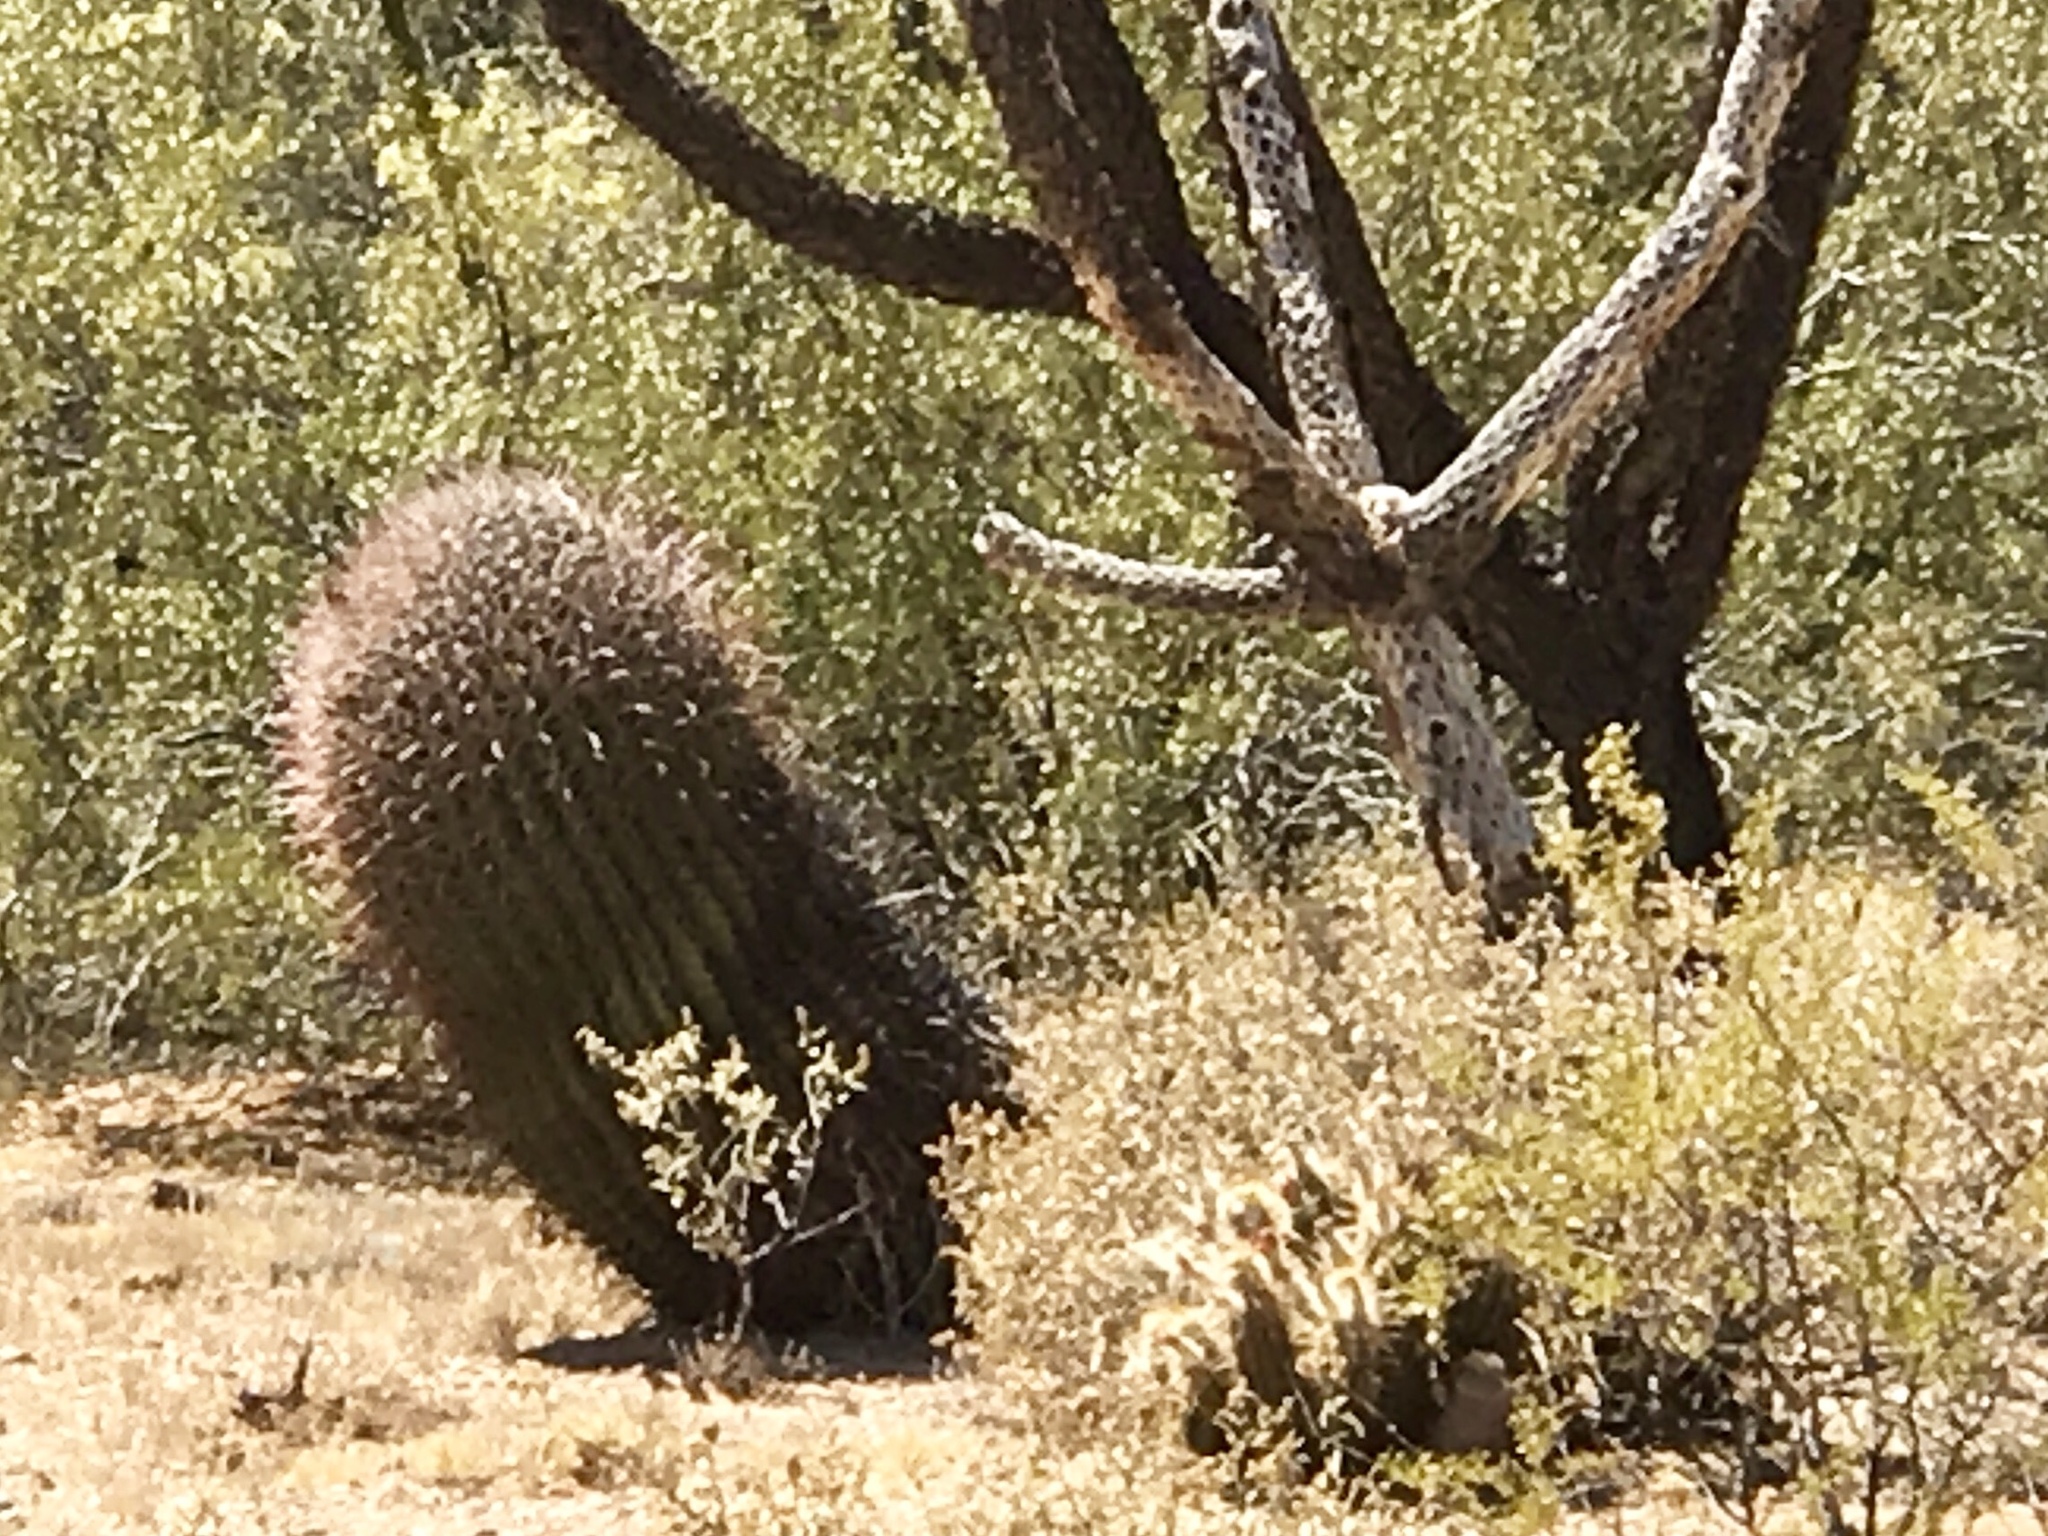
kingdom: Plantae
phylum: Tracheophyta
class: Magnoliopsida
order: Caryophyllales
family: Cactaceae
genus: Ferocactus
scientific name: Ferocactus wislizeni
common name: Candy barrel cactus
